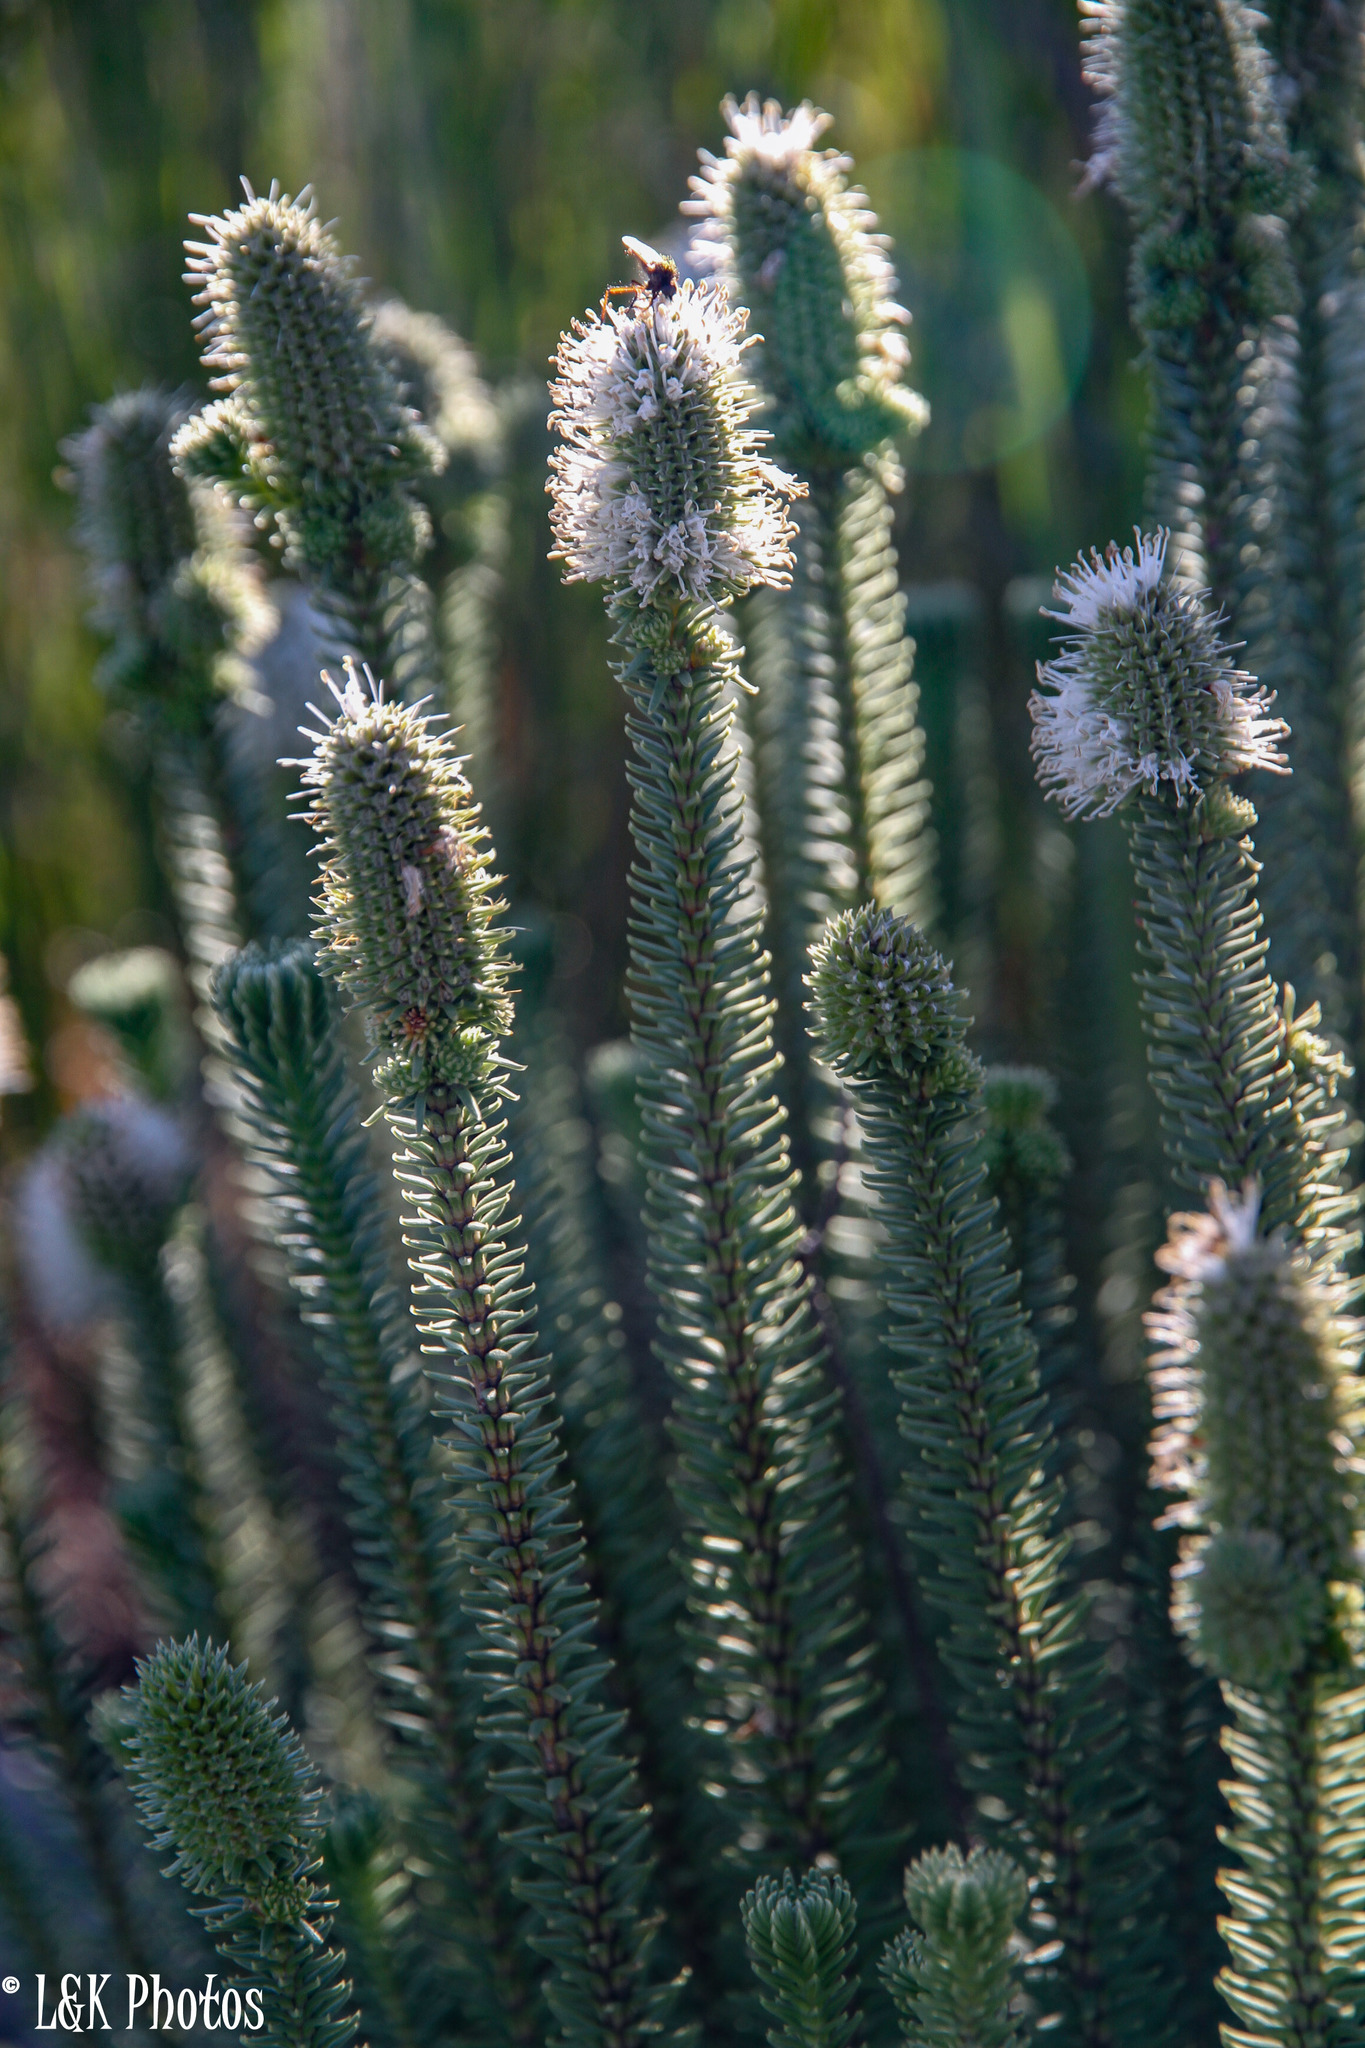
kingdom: Plantae
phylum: Tracheophyta
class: Magnoliopsida
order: Lamiales
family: Stilbaceae
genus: Stilbe
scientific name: Stilbe vestita
